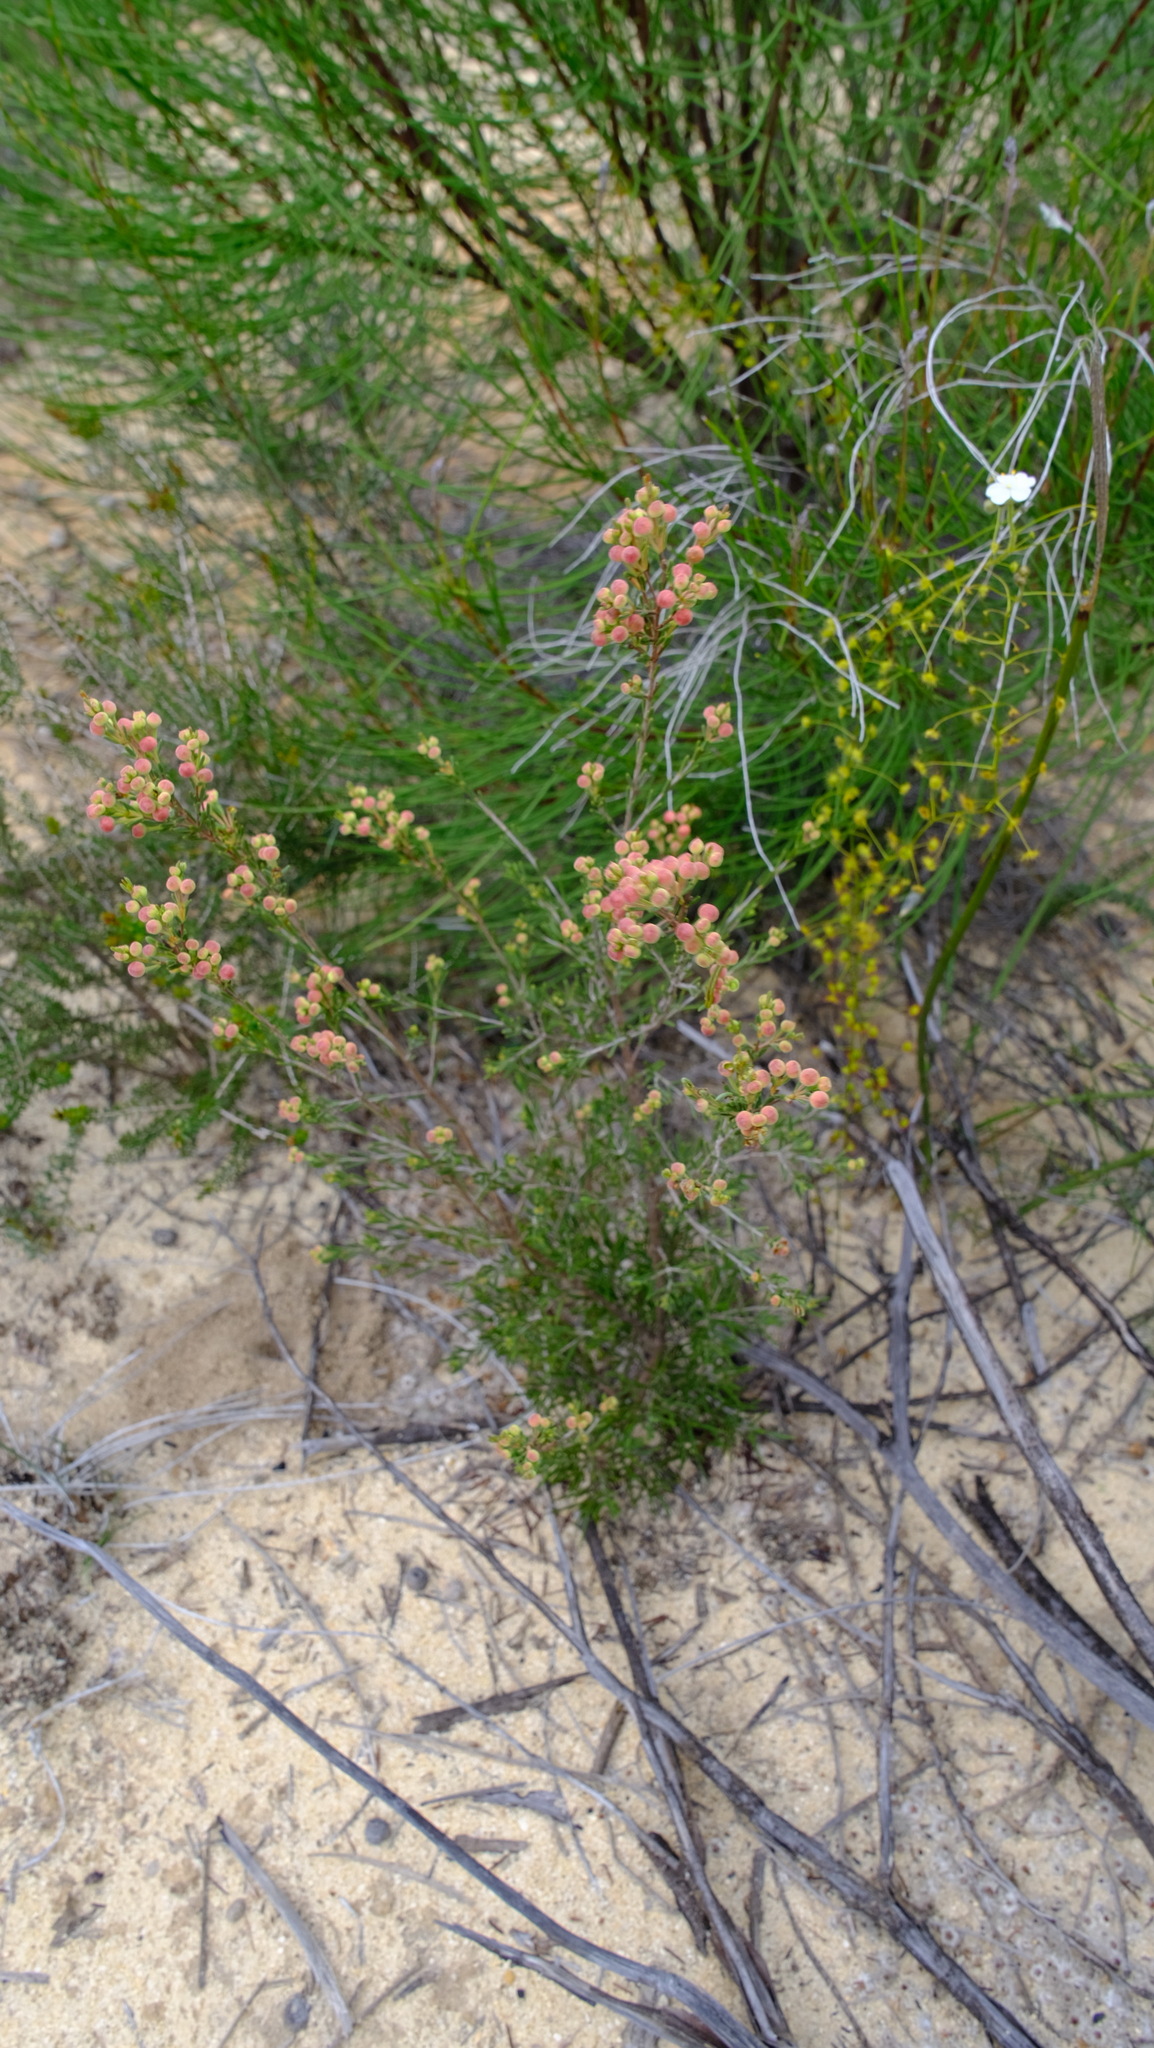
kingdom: Plantae
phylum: Tracheophyta
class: Magnoliopsida
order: Myrtales
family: Myrtaceae
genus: Verticordia
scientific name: Verticordia picta
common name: Painted feather-flower
